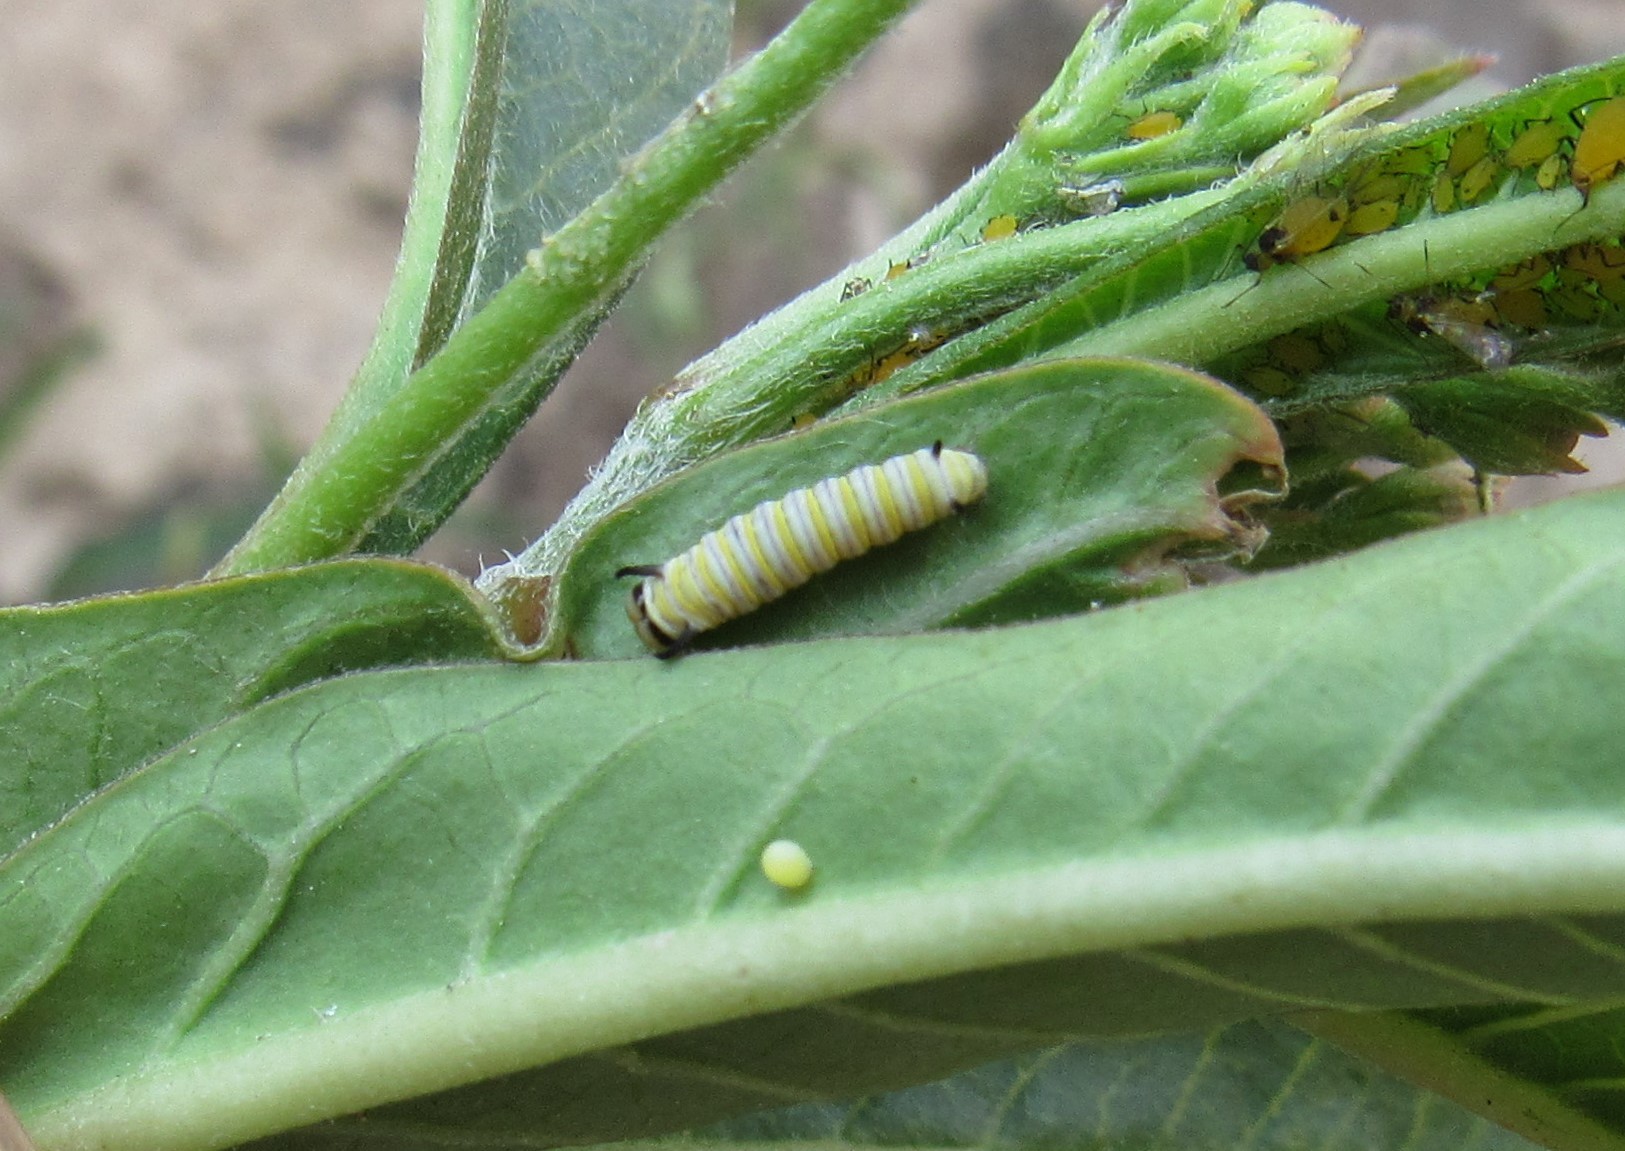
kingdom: Animalia
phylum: Arthropoda
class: Insecta
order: Lepidoptera
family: Nymphalidae
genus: Danaus
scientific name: Danaus plexippus
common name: Monarch
